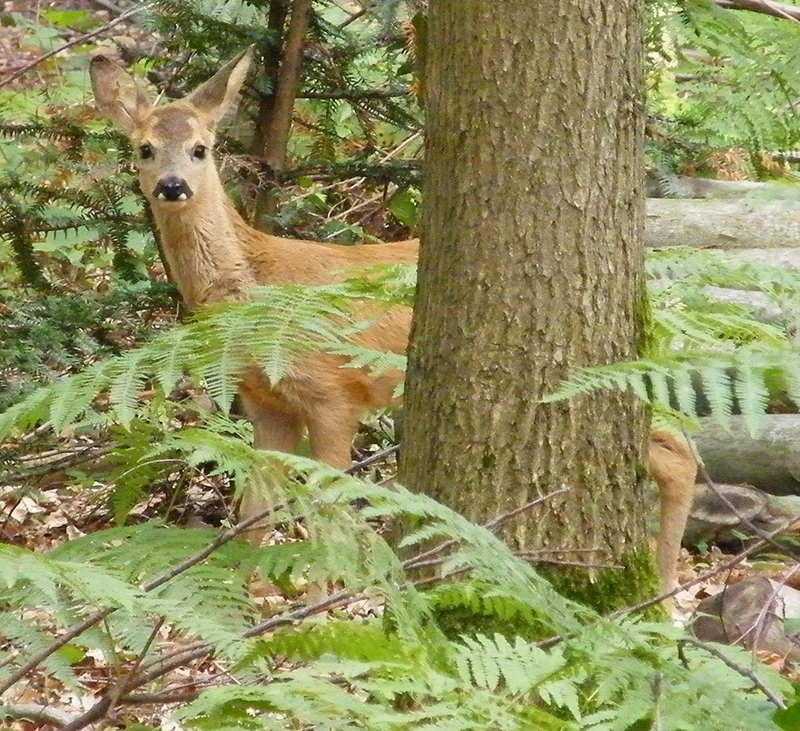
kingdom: Animalia
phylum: Chordata
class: Mammalia
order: Artiodactyla
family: Cervidae
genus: Capreolus
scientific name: Capreolus capreolus
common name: Western roe deer
